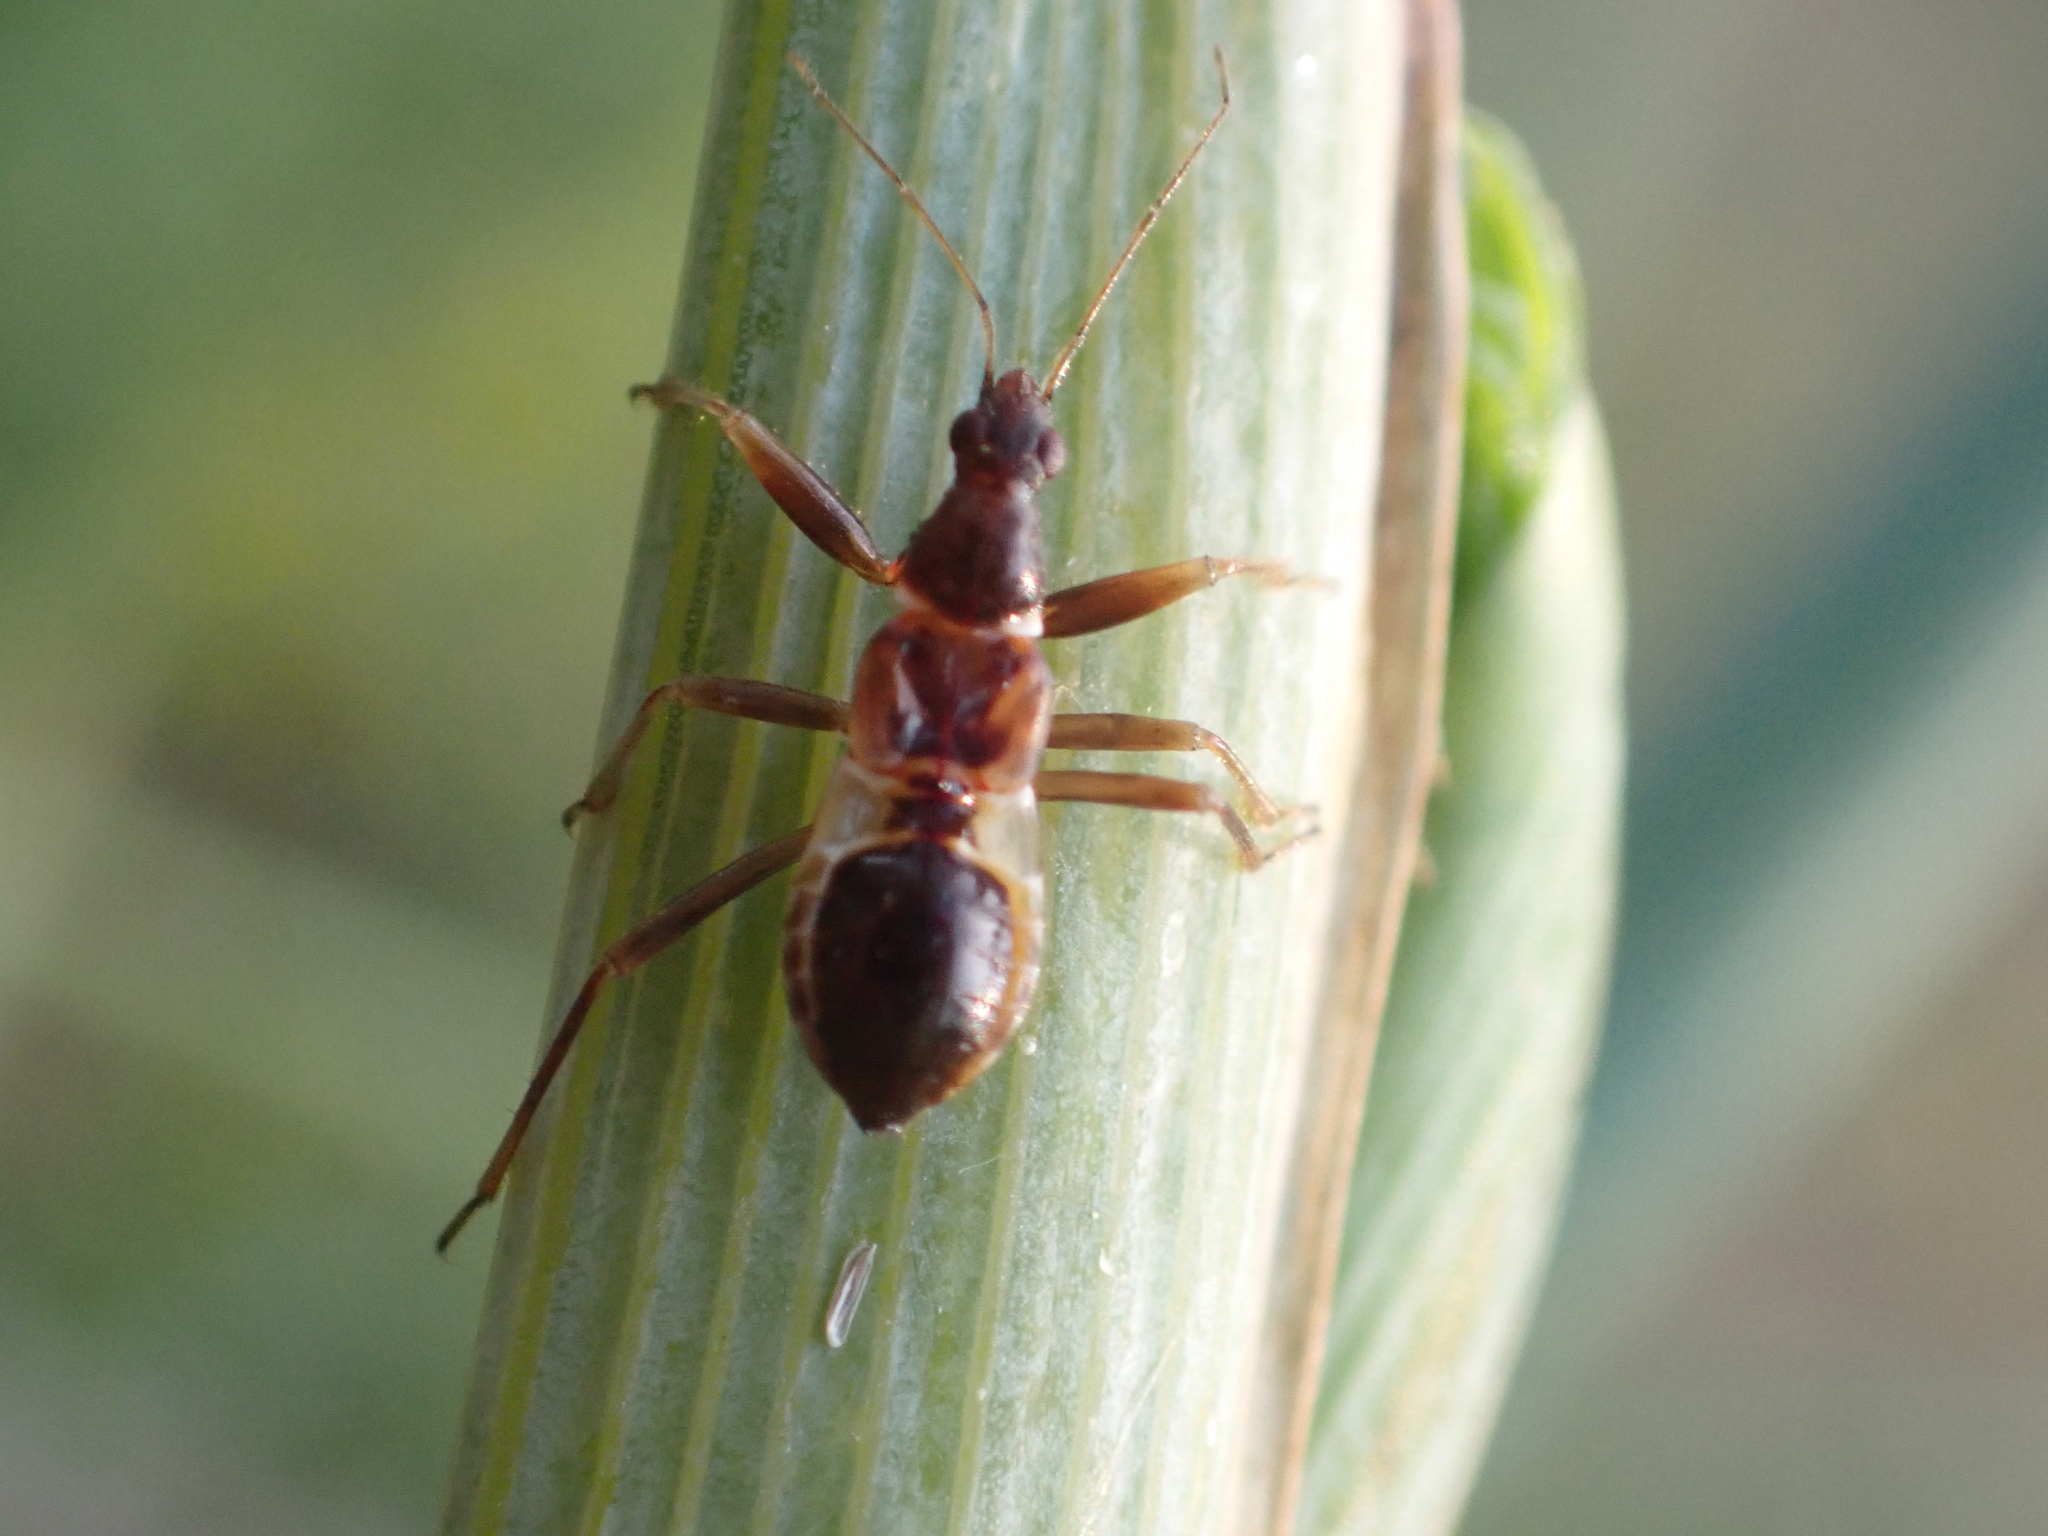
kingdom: Animalia
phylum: Arthropoda
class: Insecta
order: Hemiptera
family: Nabidae
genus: Himacerus
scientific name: Himacerus mirmicoides
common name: Ant damsel bug
